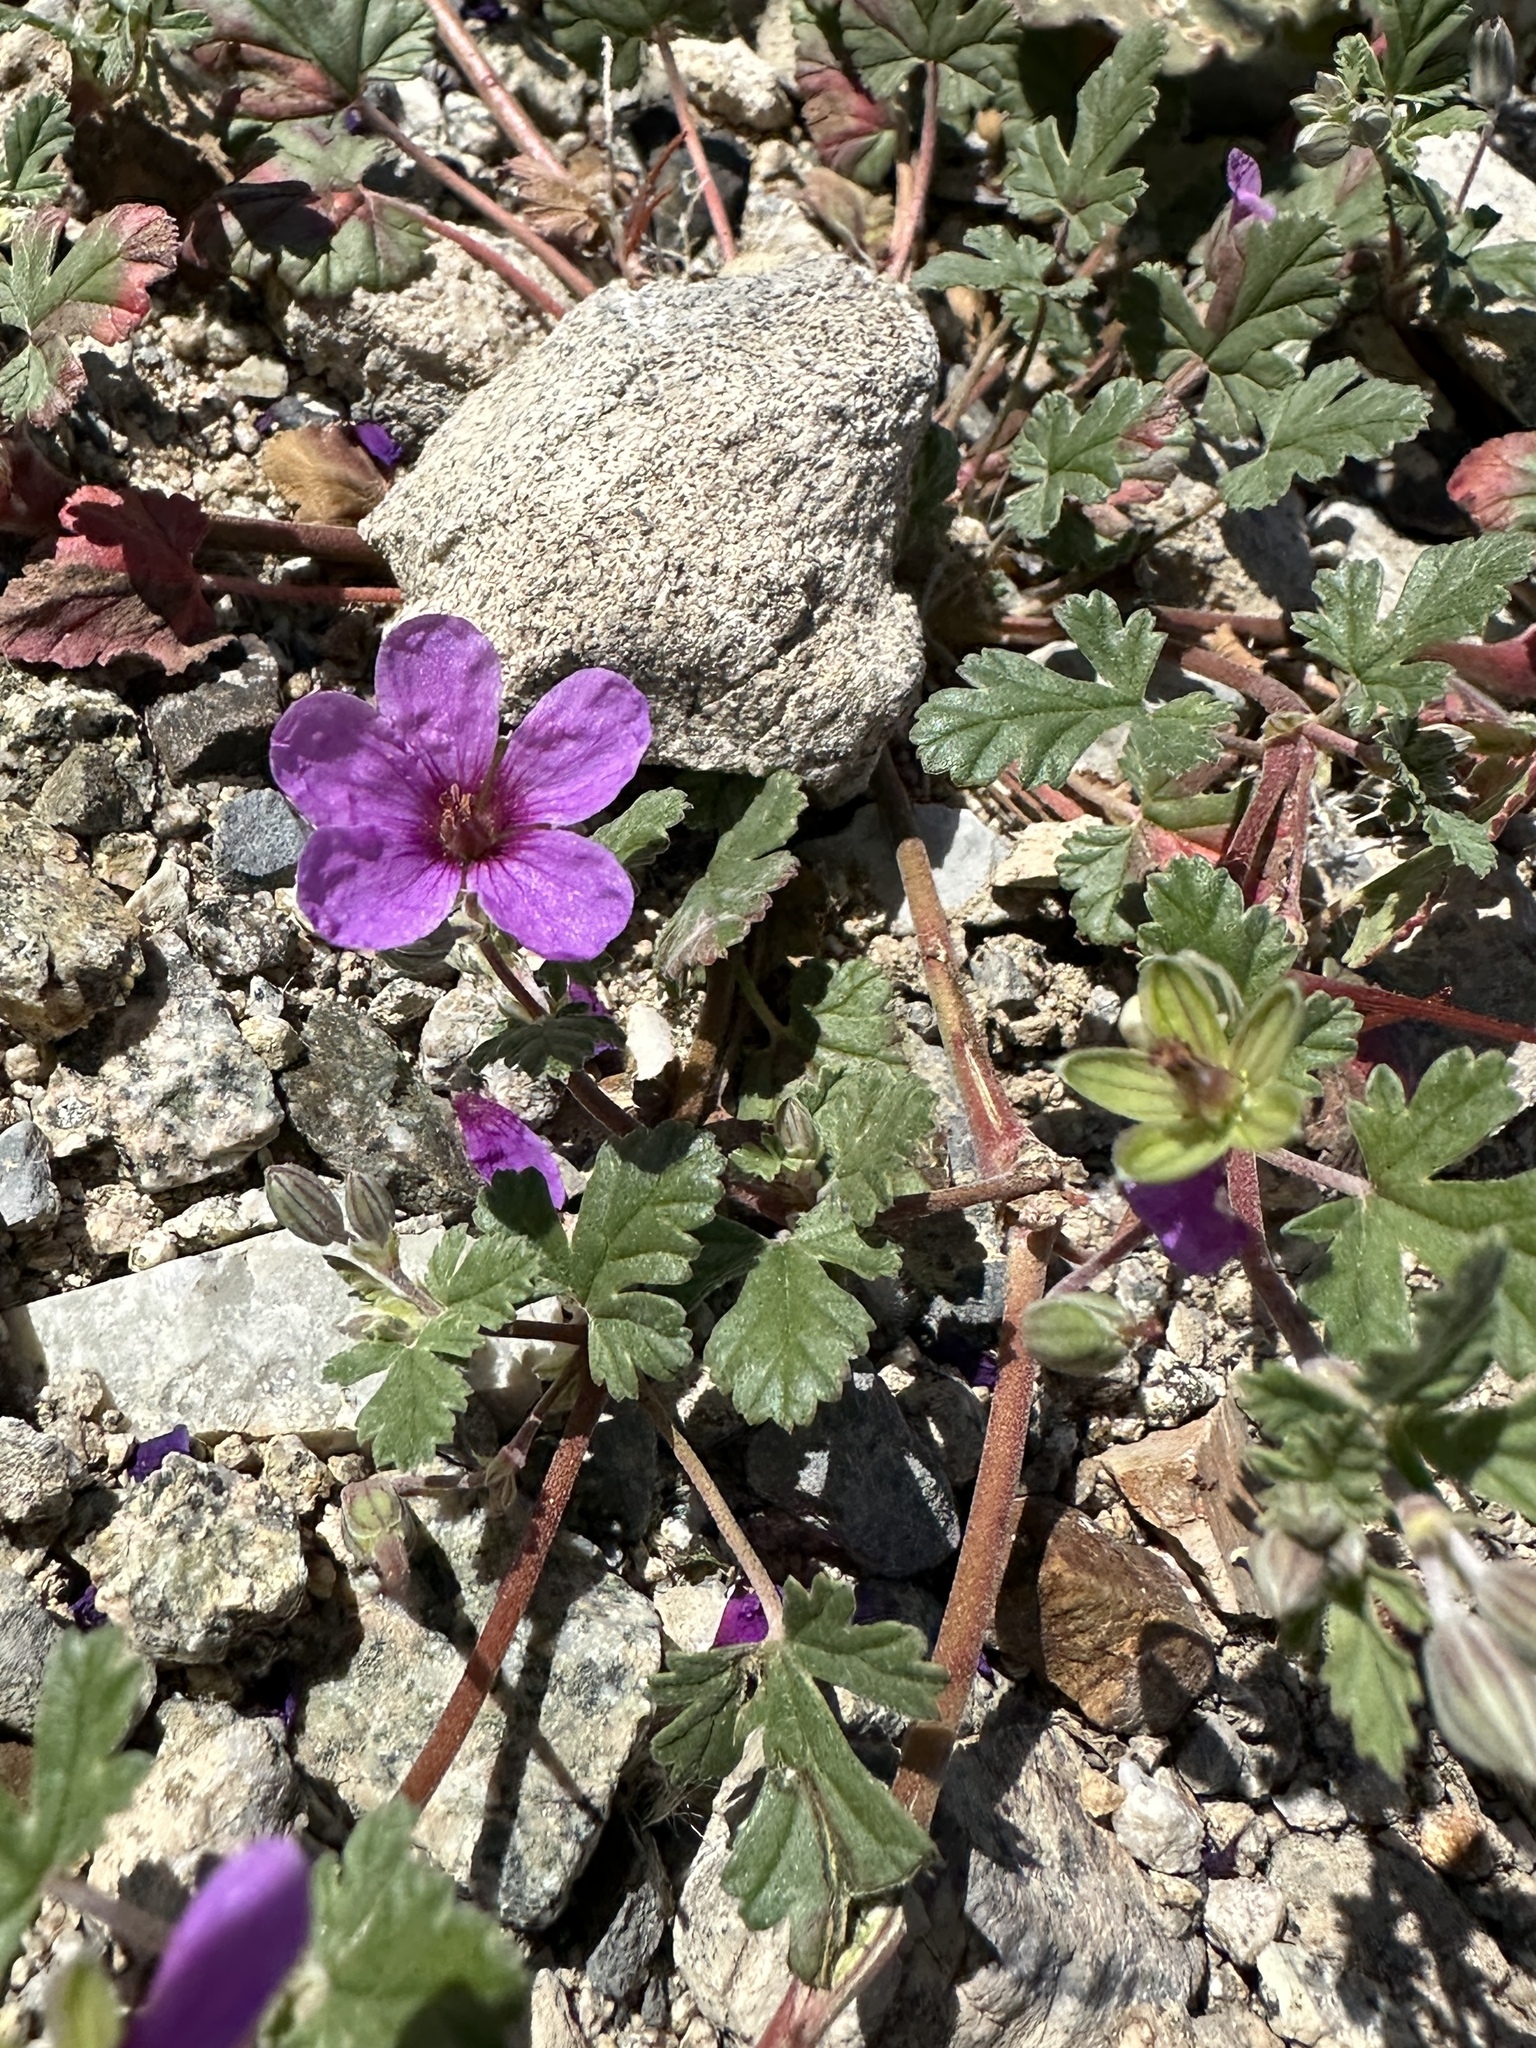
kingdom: Plantae
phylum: Tracheophyta
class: Magnoliopsida
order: Geraniales
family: Geraniaceae
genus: Erodium
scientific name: Erodium texanum
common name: Texas stork's-bill
